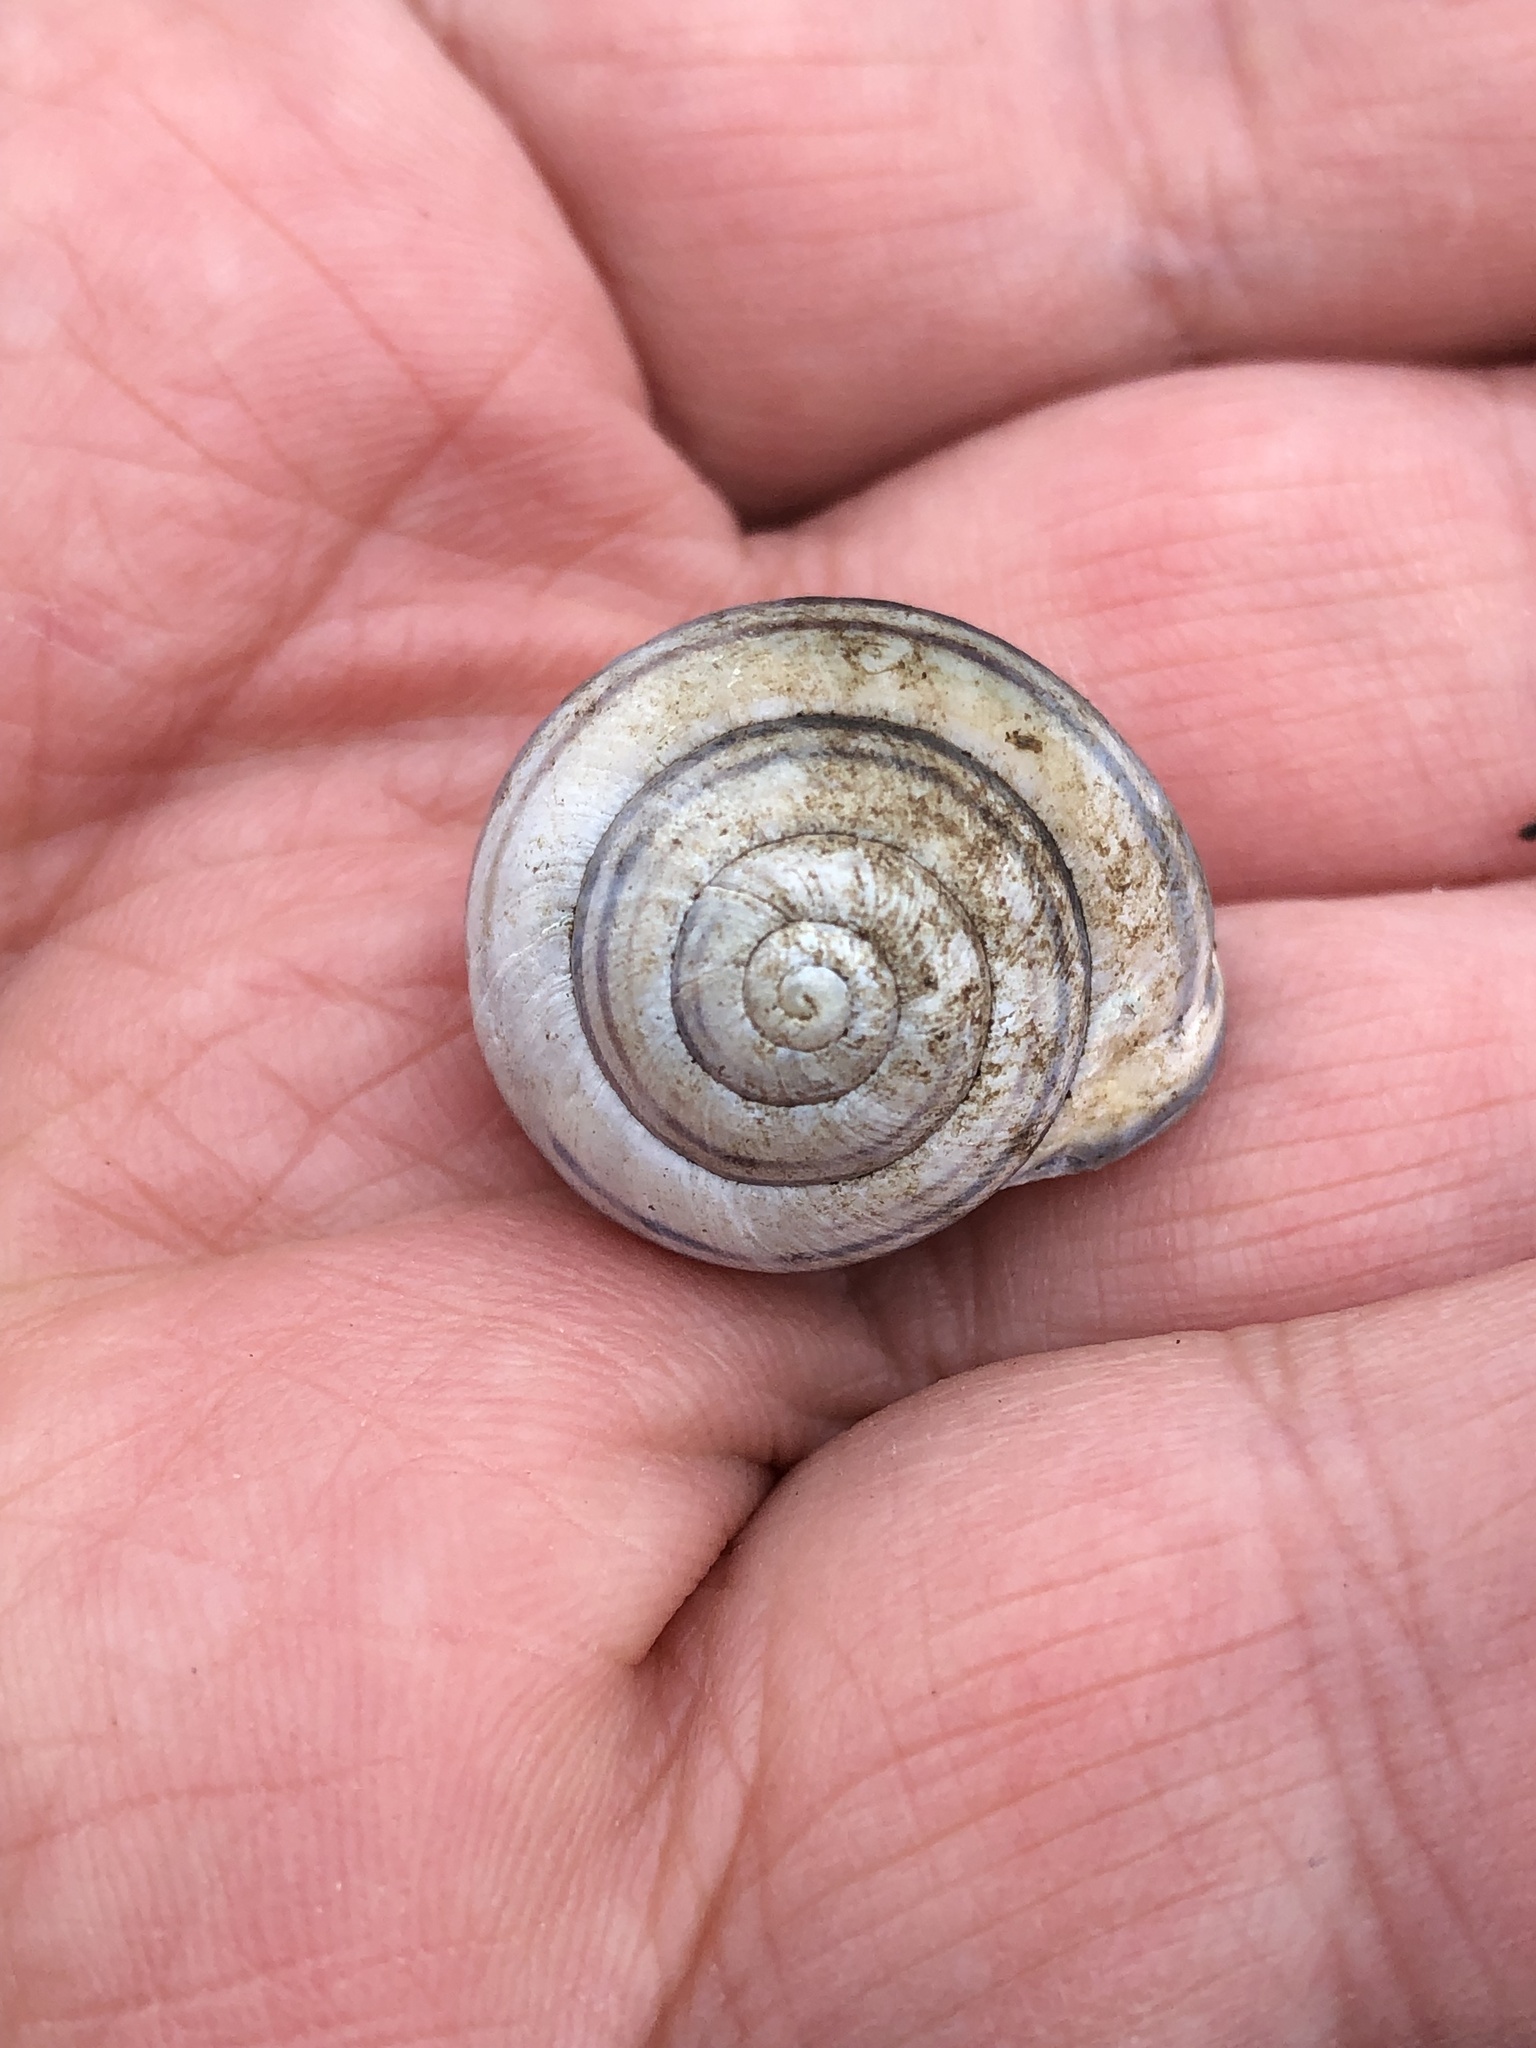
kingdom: Animalia
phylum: Mollusca
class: Gastropoda
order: Stylommatophora
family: Helicidae
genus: Cepaea
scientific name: Cepaea nemoralis
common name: Grovesnail
